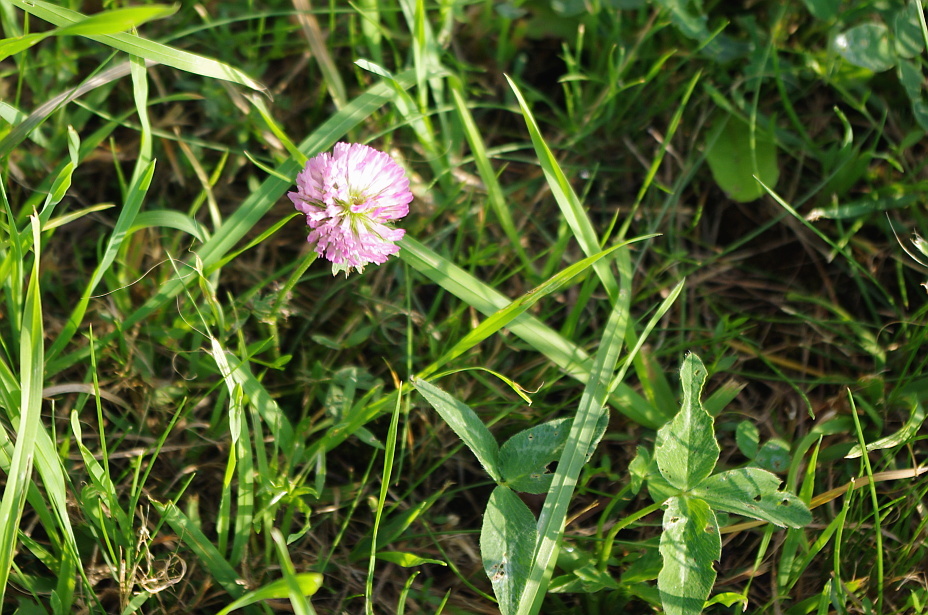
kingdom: Plantae
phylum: Tracheophyta
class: Magnoliopsida
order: Fabales
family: Fabaceae
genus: Trifolium
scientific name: Trifolium pratense
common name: Red clover
